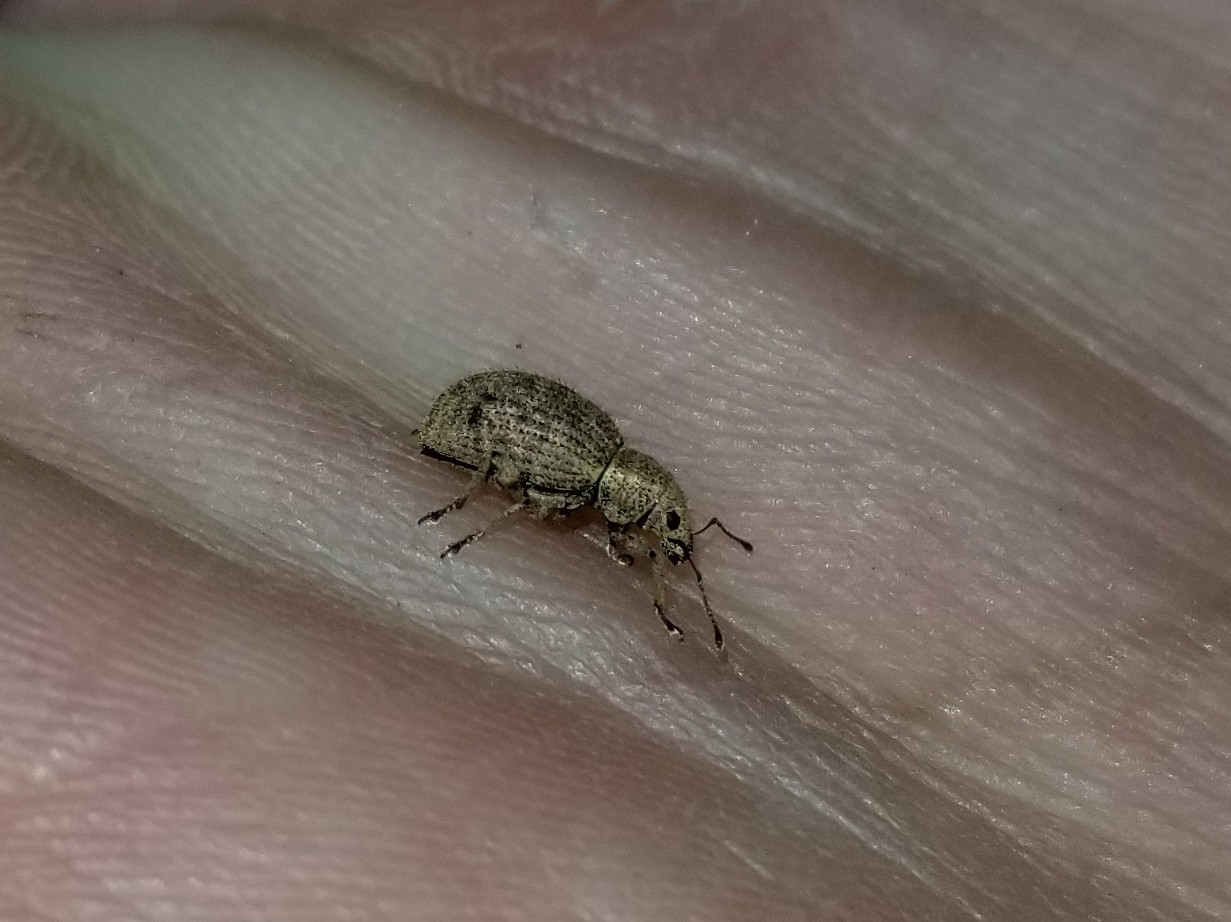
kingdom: Animalia
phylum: Arthropoda
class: Insecta
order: Coleoptera
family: Curculionidae
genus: Sciaphilus
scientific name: Sciaphilus asperatus
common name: Weevil
